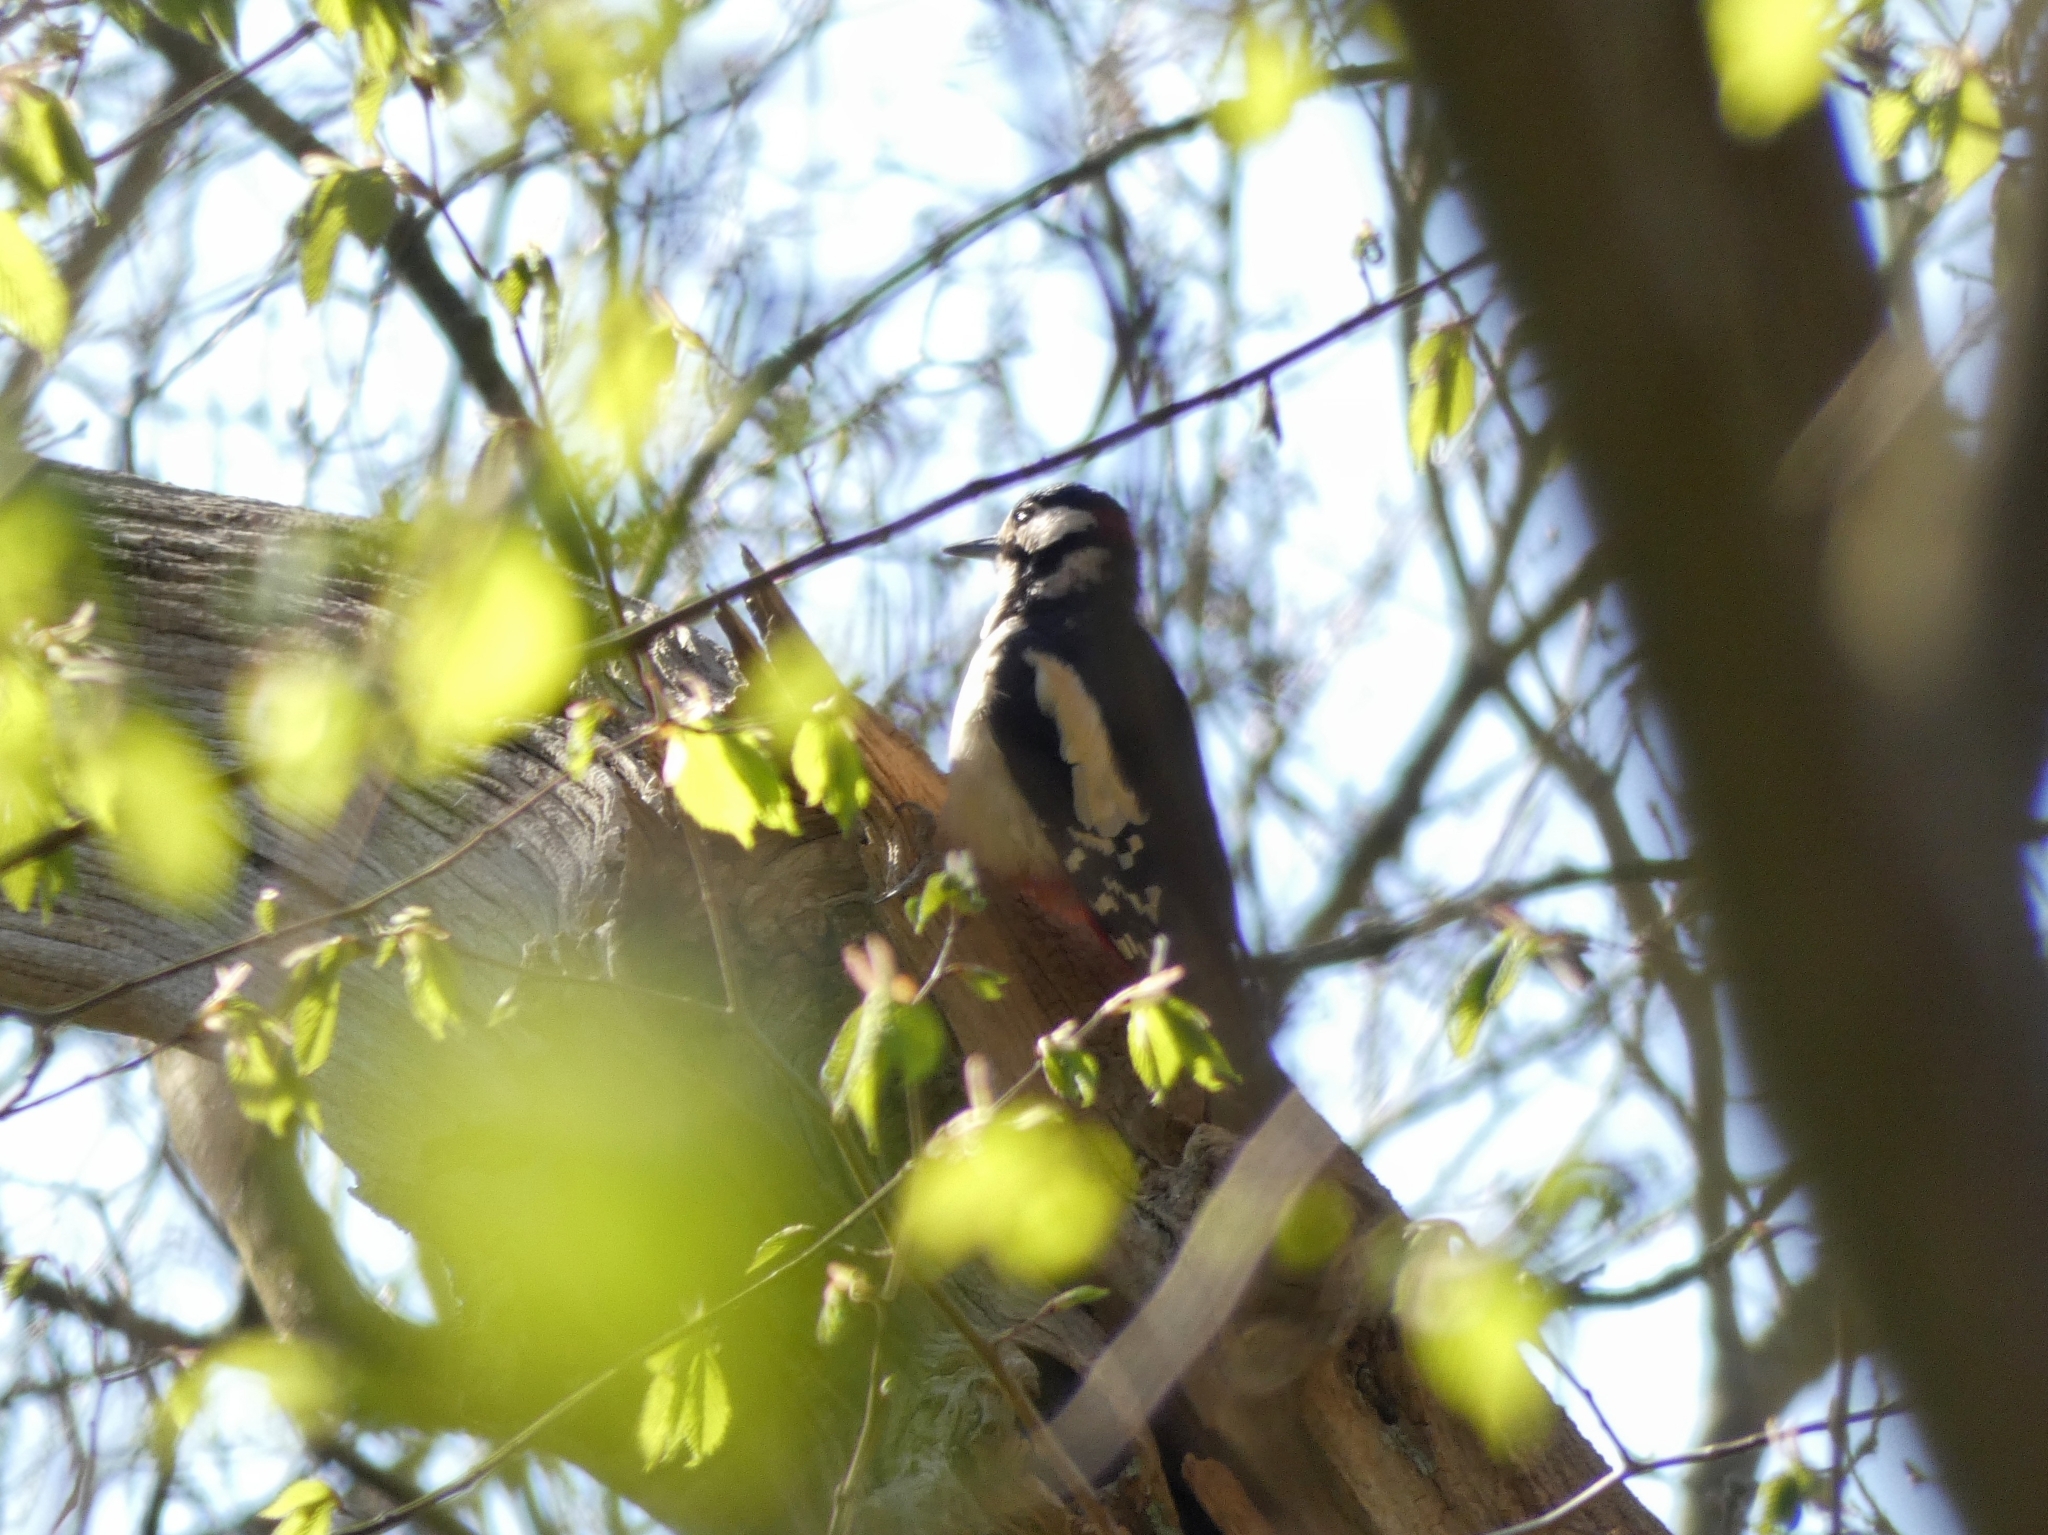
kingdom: Animalia
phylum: Chordata
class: Aves
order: Piciformes
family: Picidae
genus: Dendrocopos
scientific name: Dendrocopos major
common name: Great spotted woodpecker
